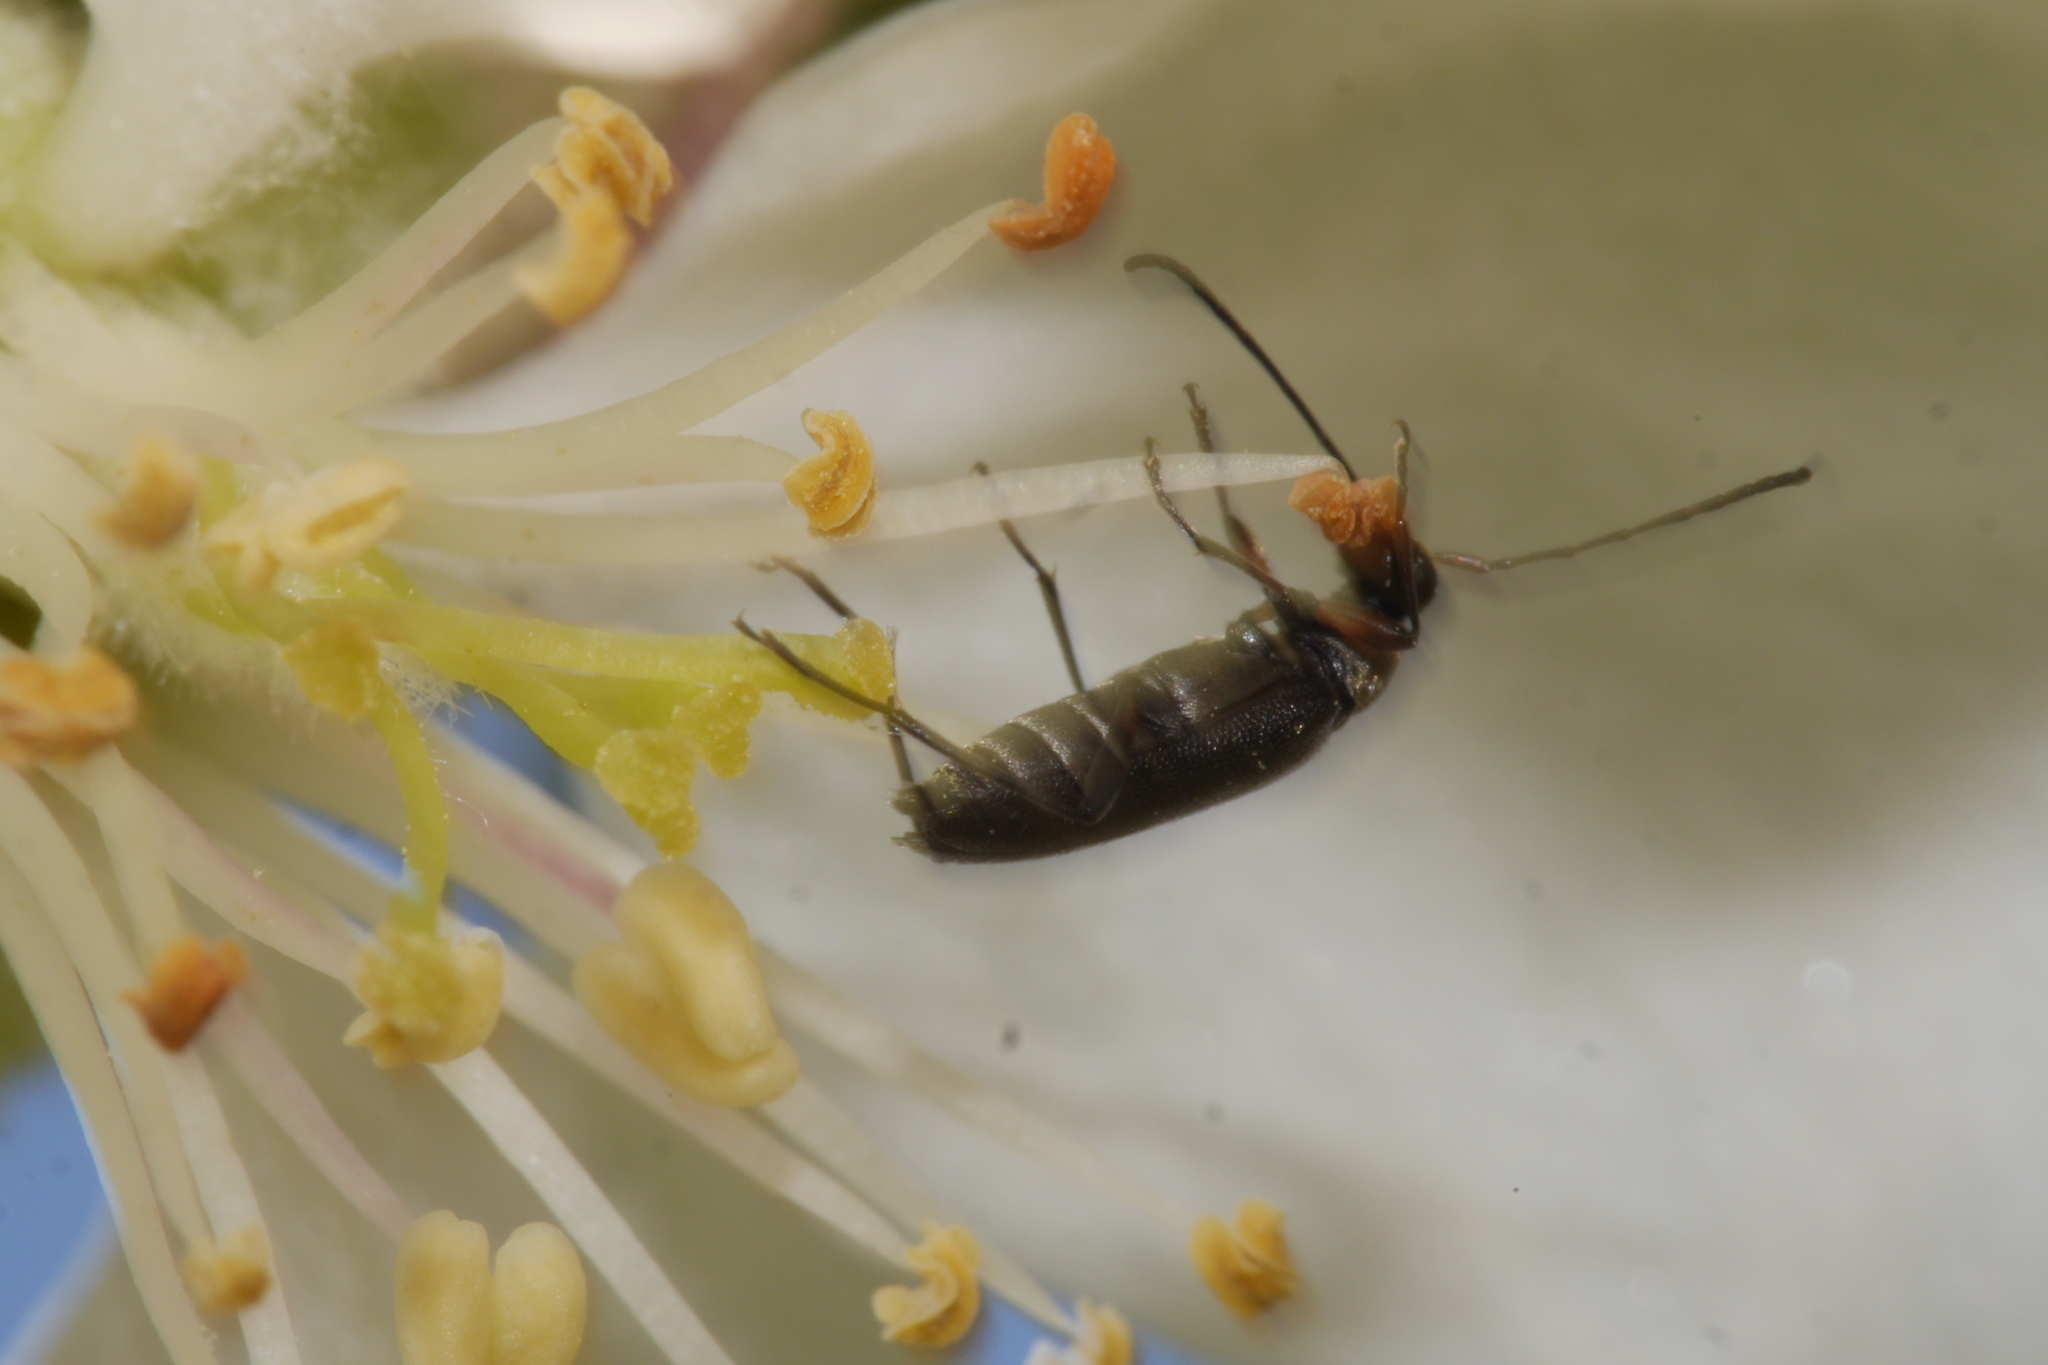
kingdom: Animalia
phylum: Arthropoda
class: Insecta
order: Coleoptera
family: Cerambycidae
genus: Grammoptera
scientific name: Grammoptera ruficornis
